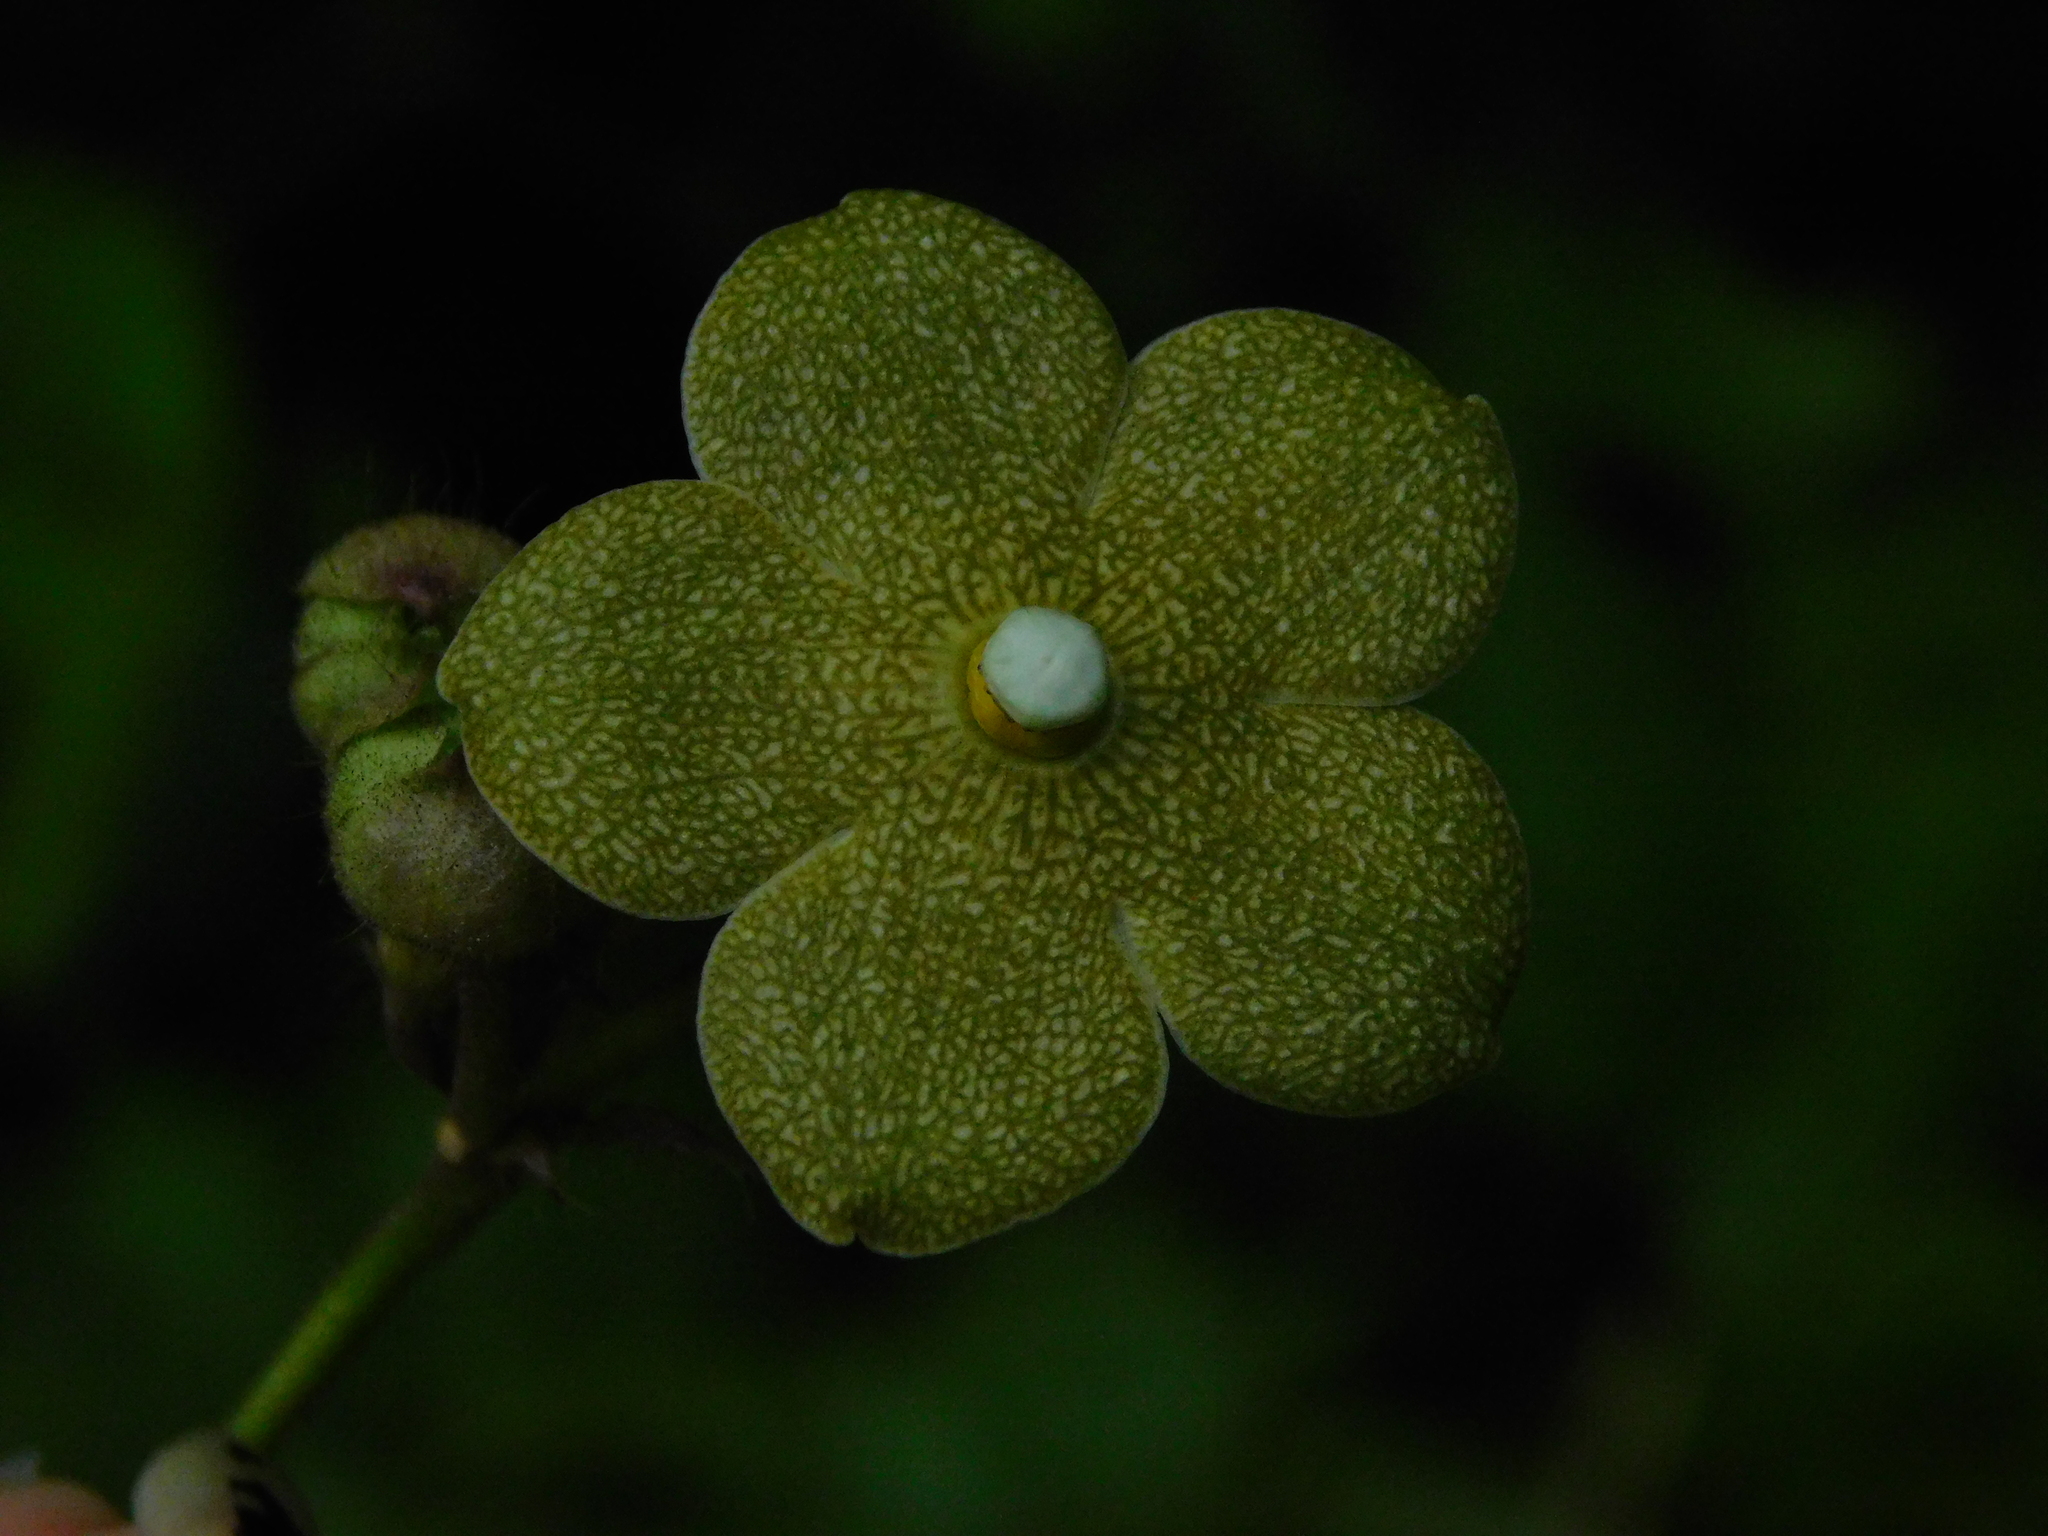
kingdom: Plantae
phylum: Tracheophyta
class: Magnoliopsida
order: Gentianales
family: Apocynaceae
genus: Matelea
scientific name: Matelea velutina
